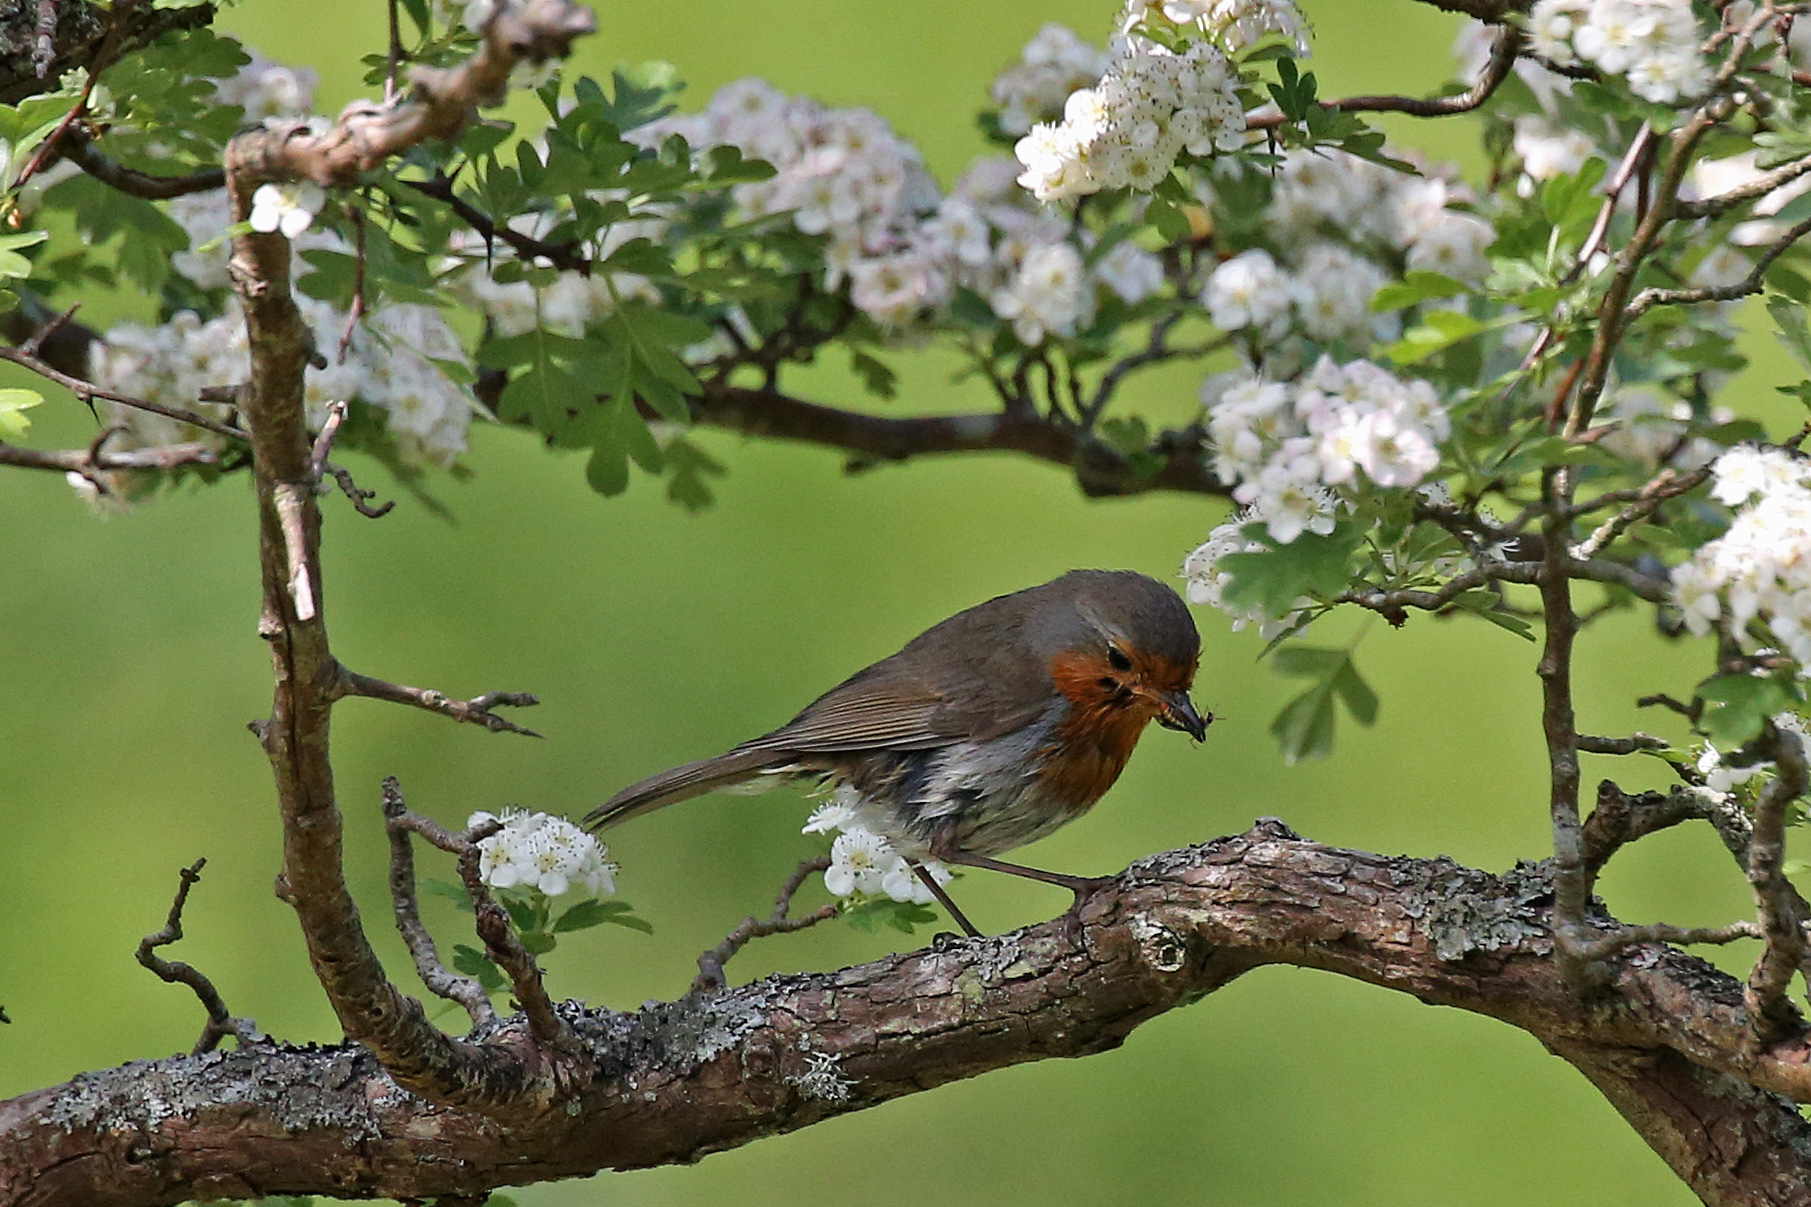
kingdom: Animalia
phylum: Chordata
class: Aves
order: Passeriformes
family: Muscicapidae
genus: Erithacus
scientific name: Erithacus rubecula
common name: European robin
